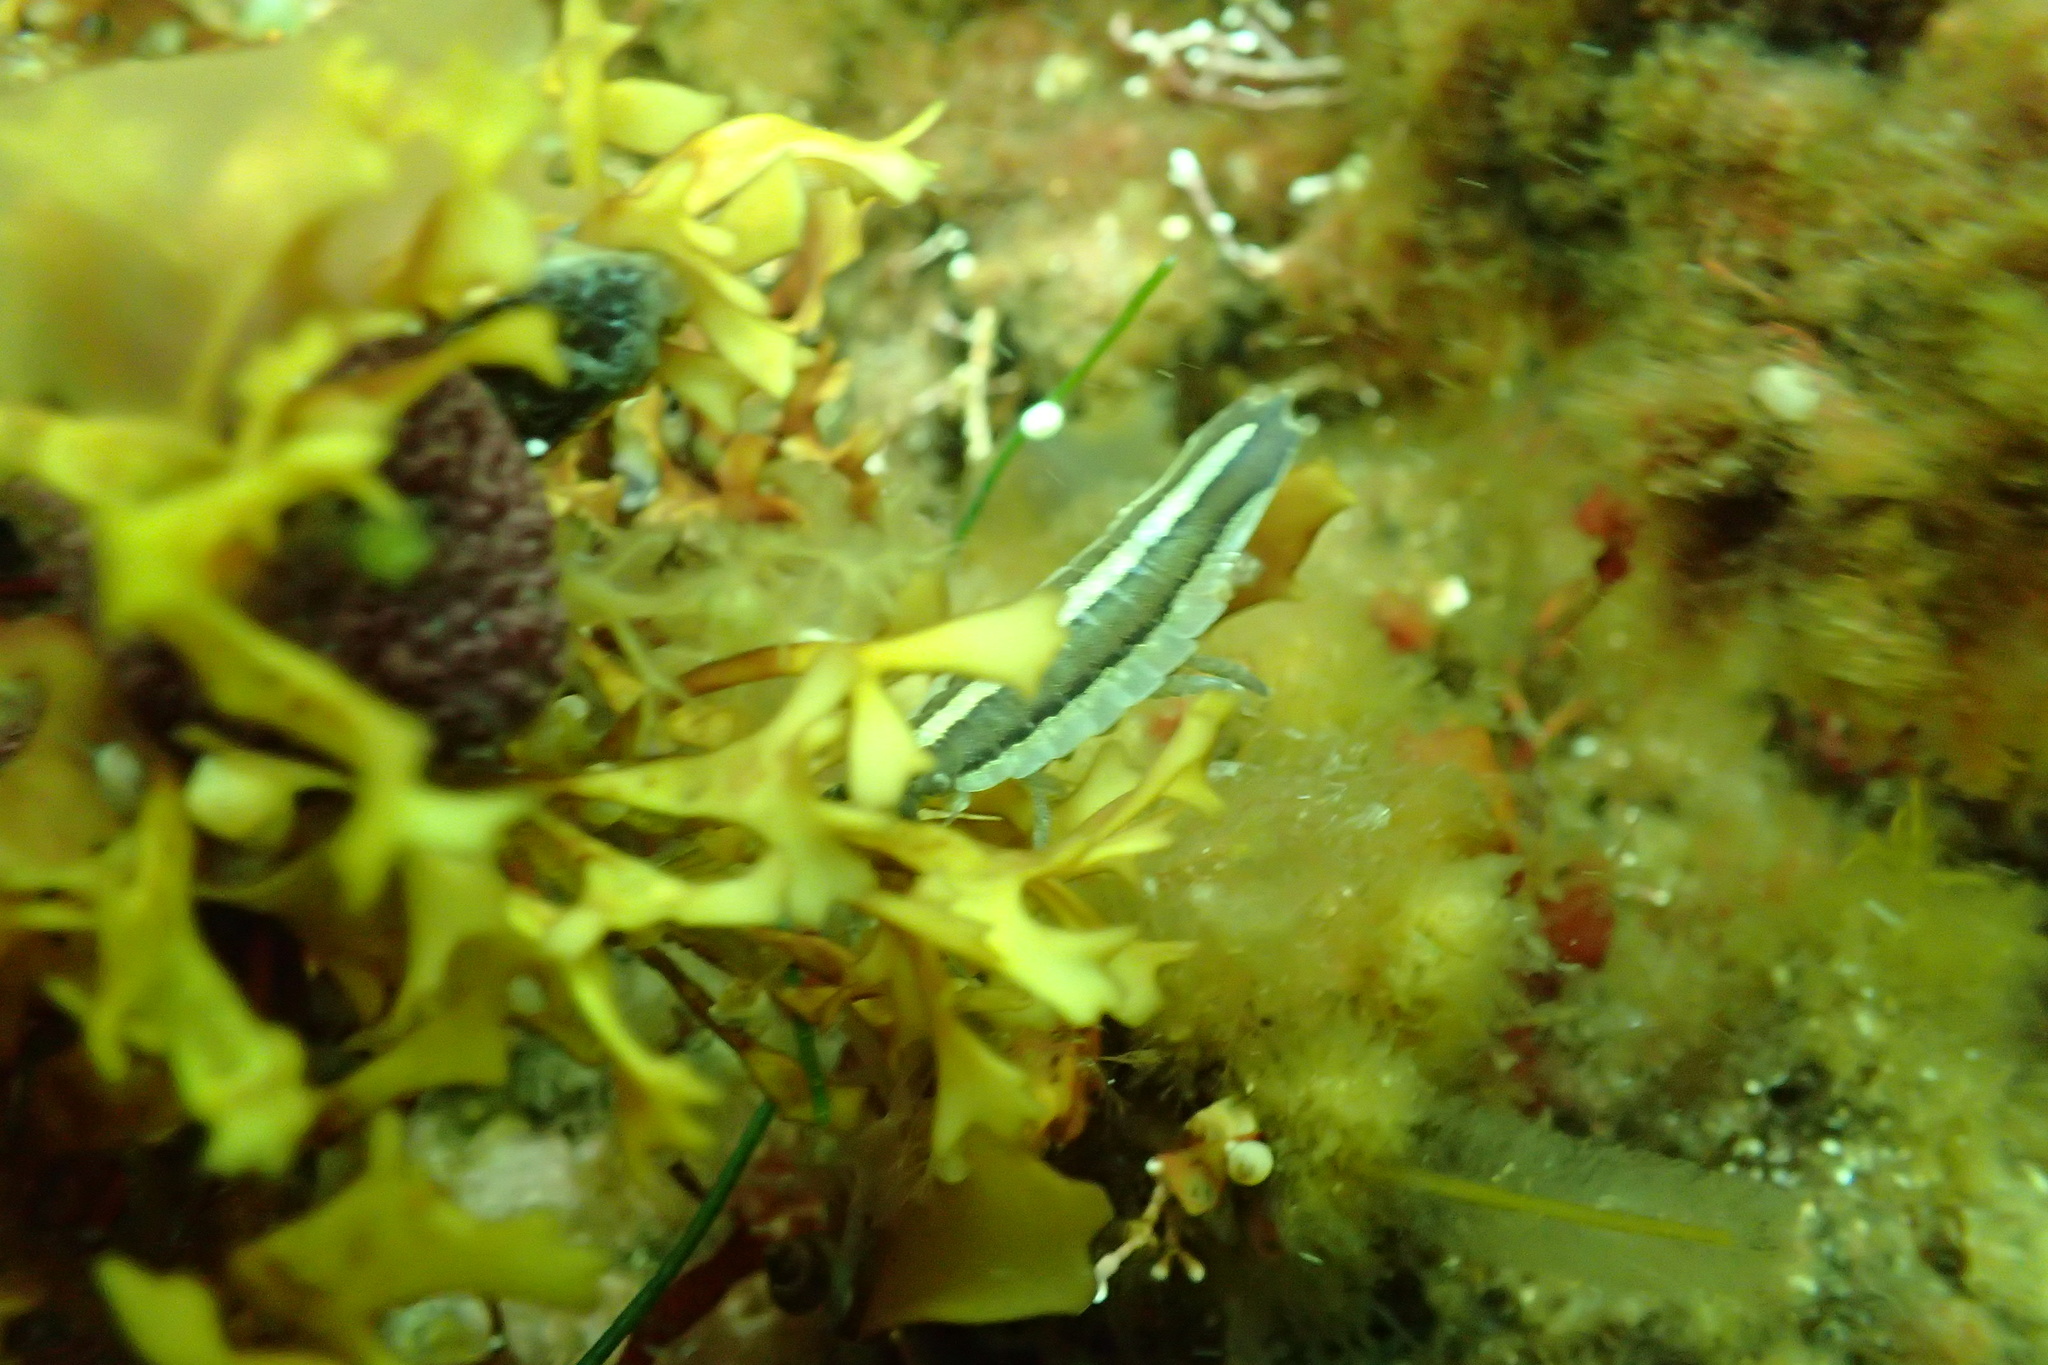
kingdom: Animalia
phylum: Arthropoda
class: Malacostraca
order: Isopoda
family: Idoteidae
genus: Idotea
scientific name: Idotea balthica
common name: Baltic isopod
